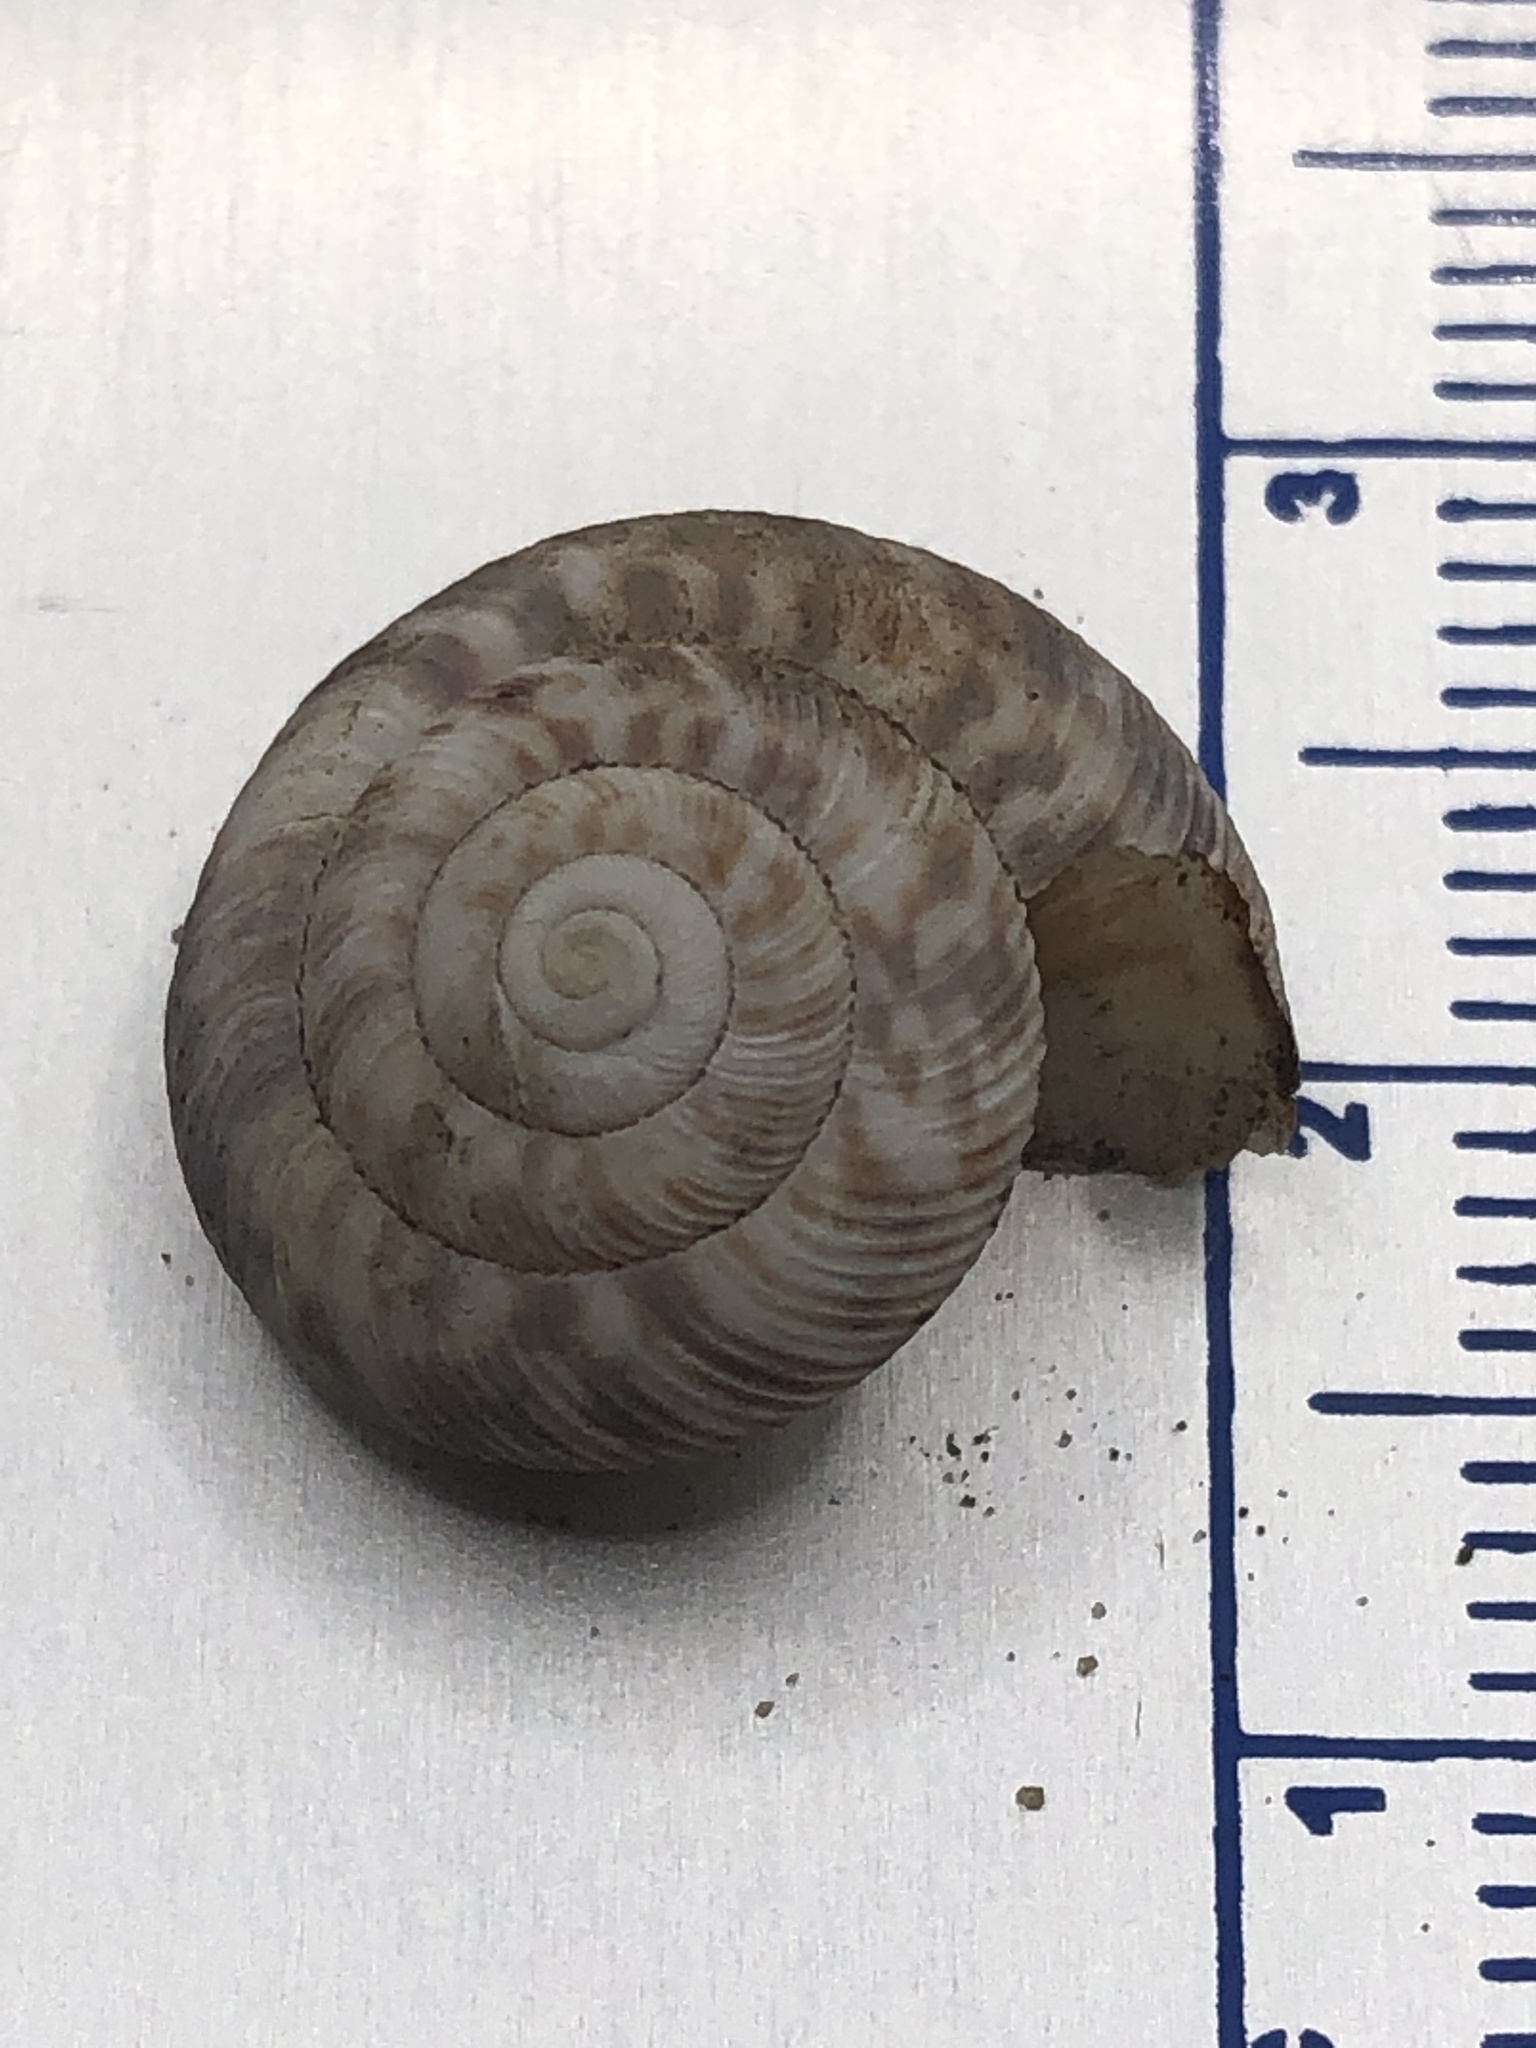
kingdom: Animalia
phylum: Mollusca
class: Gastropoda
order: Stylommatophora
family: Discidae
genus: Anguispira
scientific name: Anguispira alternata
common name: Flamed tigersnail
